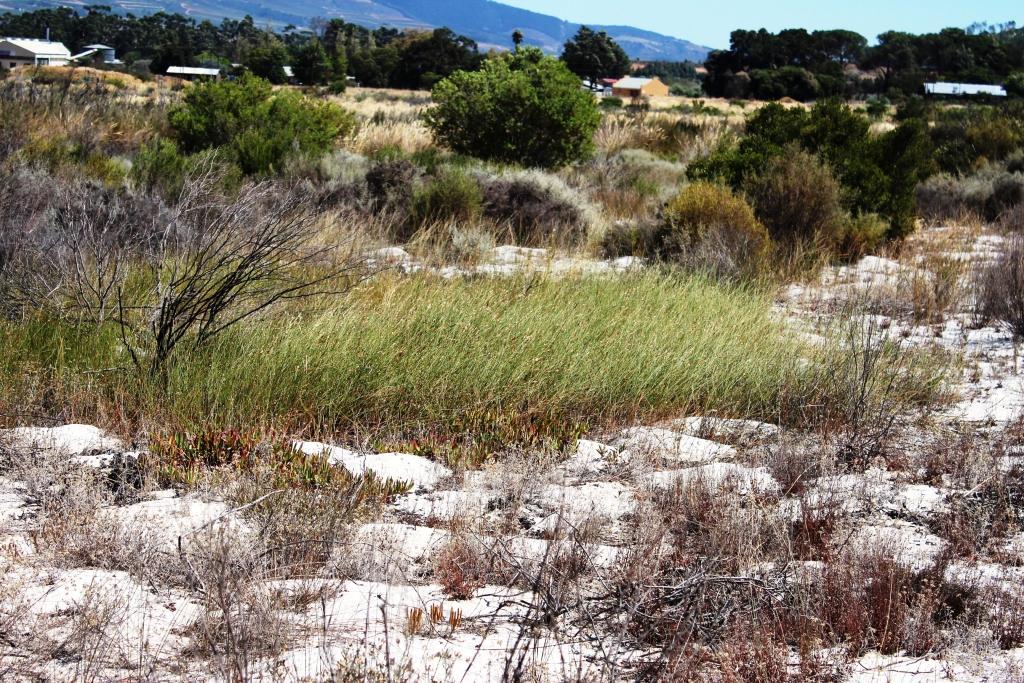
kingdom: Plantae
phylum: Tracheophyta
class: Liliopsida
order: Poales
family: Restionaceae
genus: Willdenowia
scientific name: Willdenowia sulcata
